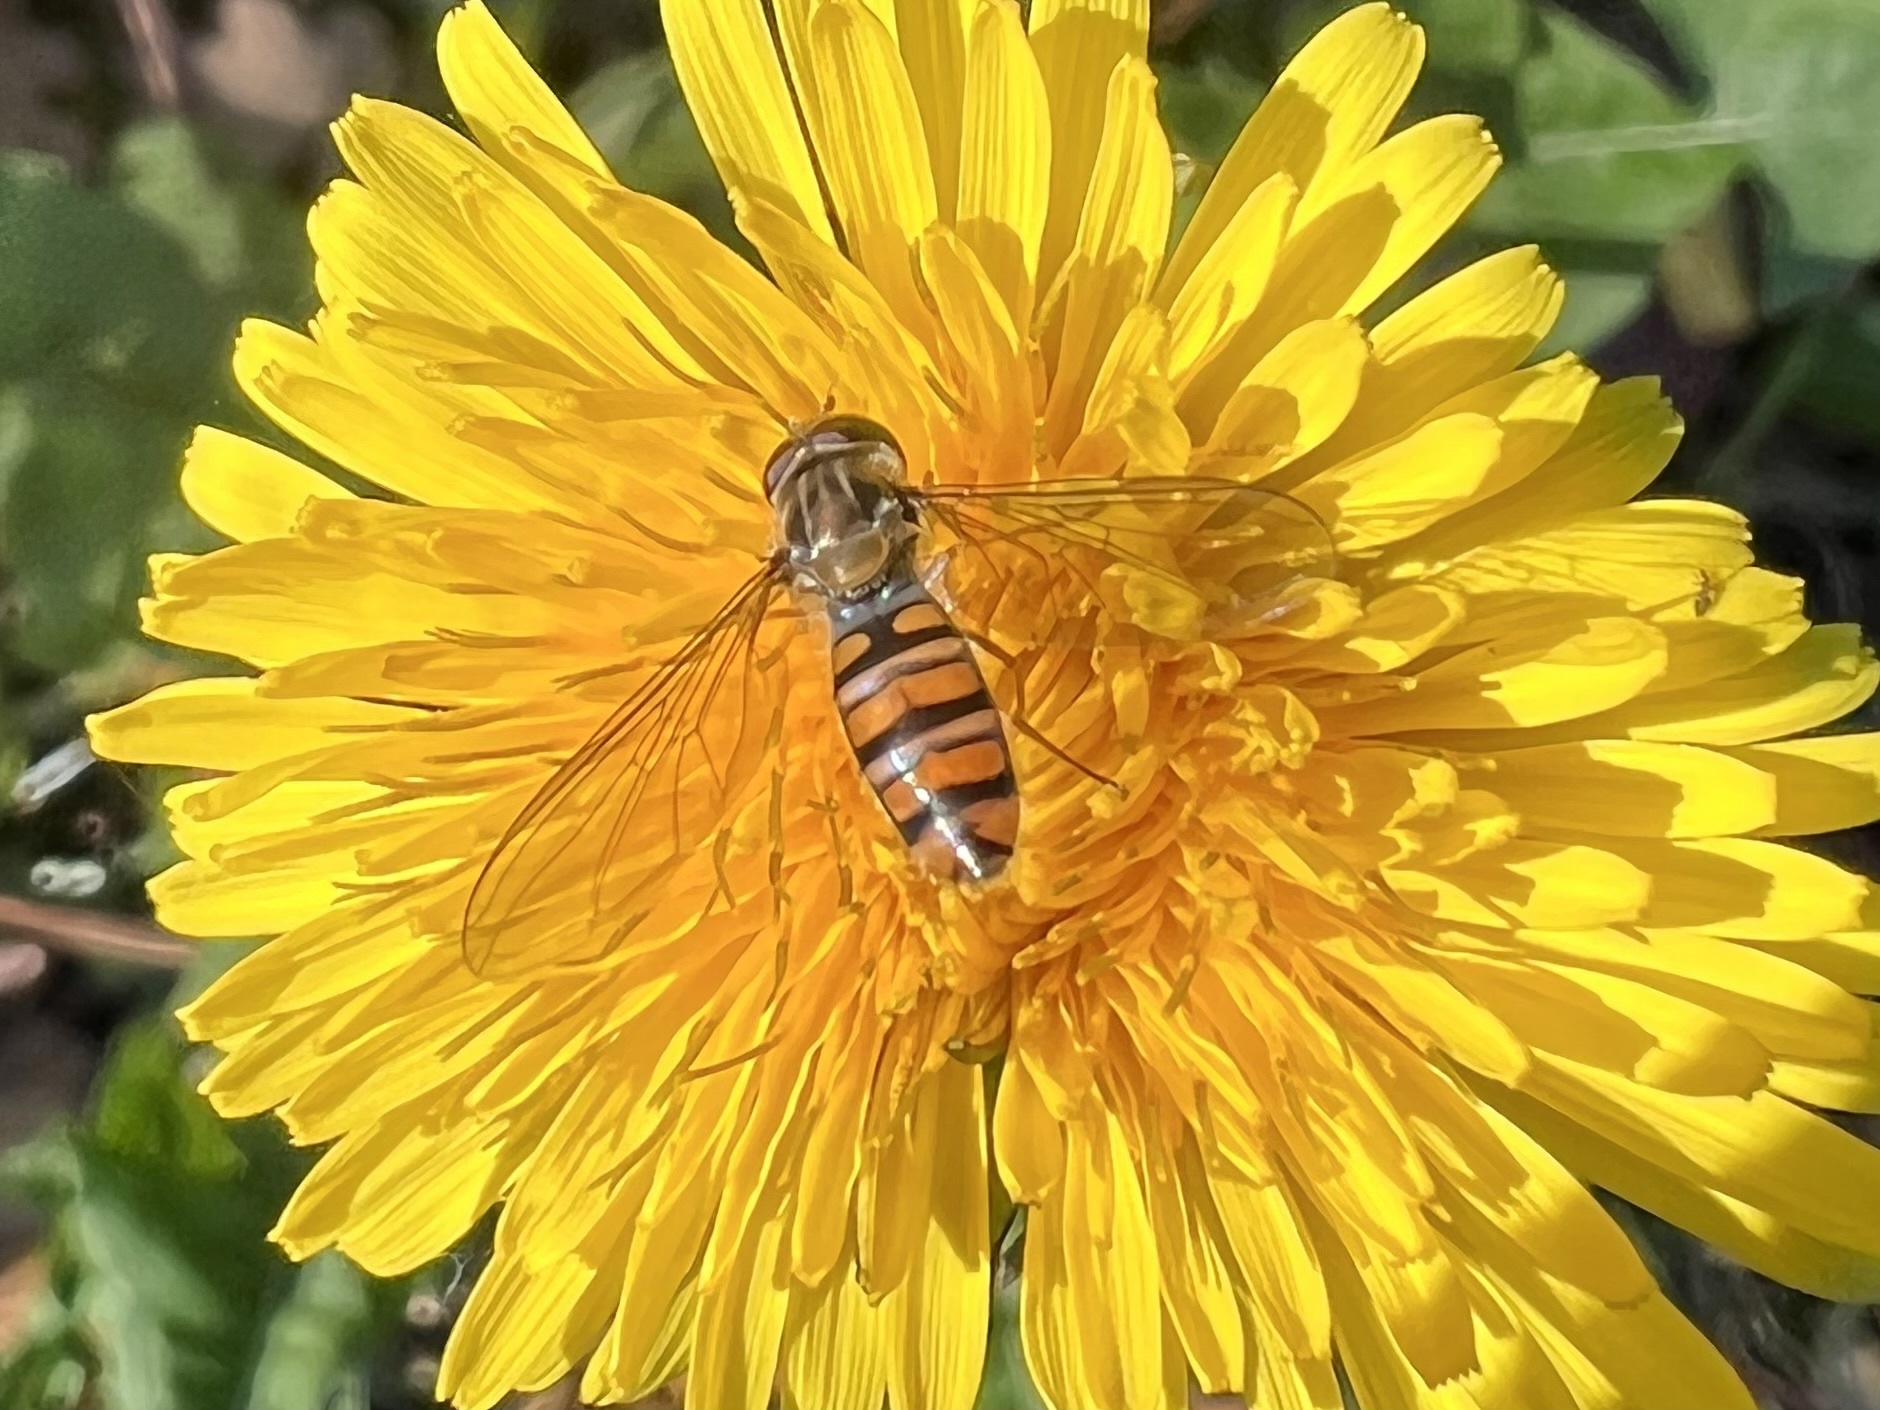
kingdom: Animalia
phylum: Arthropoda
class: Insecta
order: Diptera
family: Syrphidae
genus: Episyrphus
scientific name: Episyrphus balteatus
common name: Marmalade hoverfly
